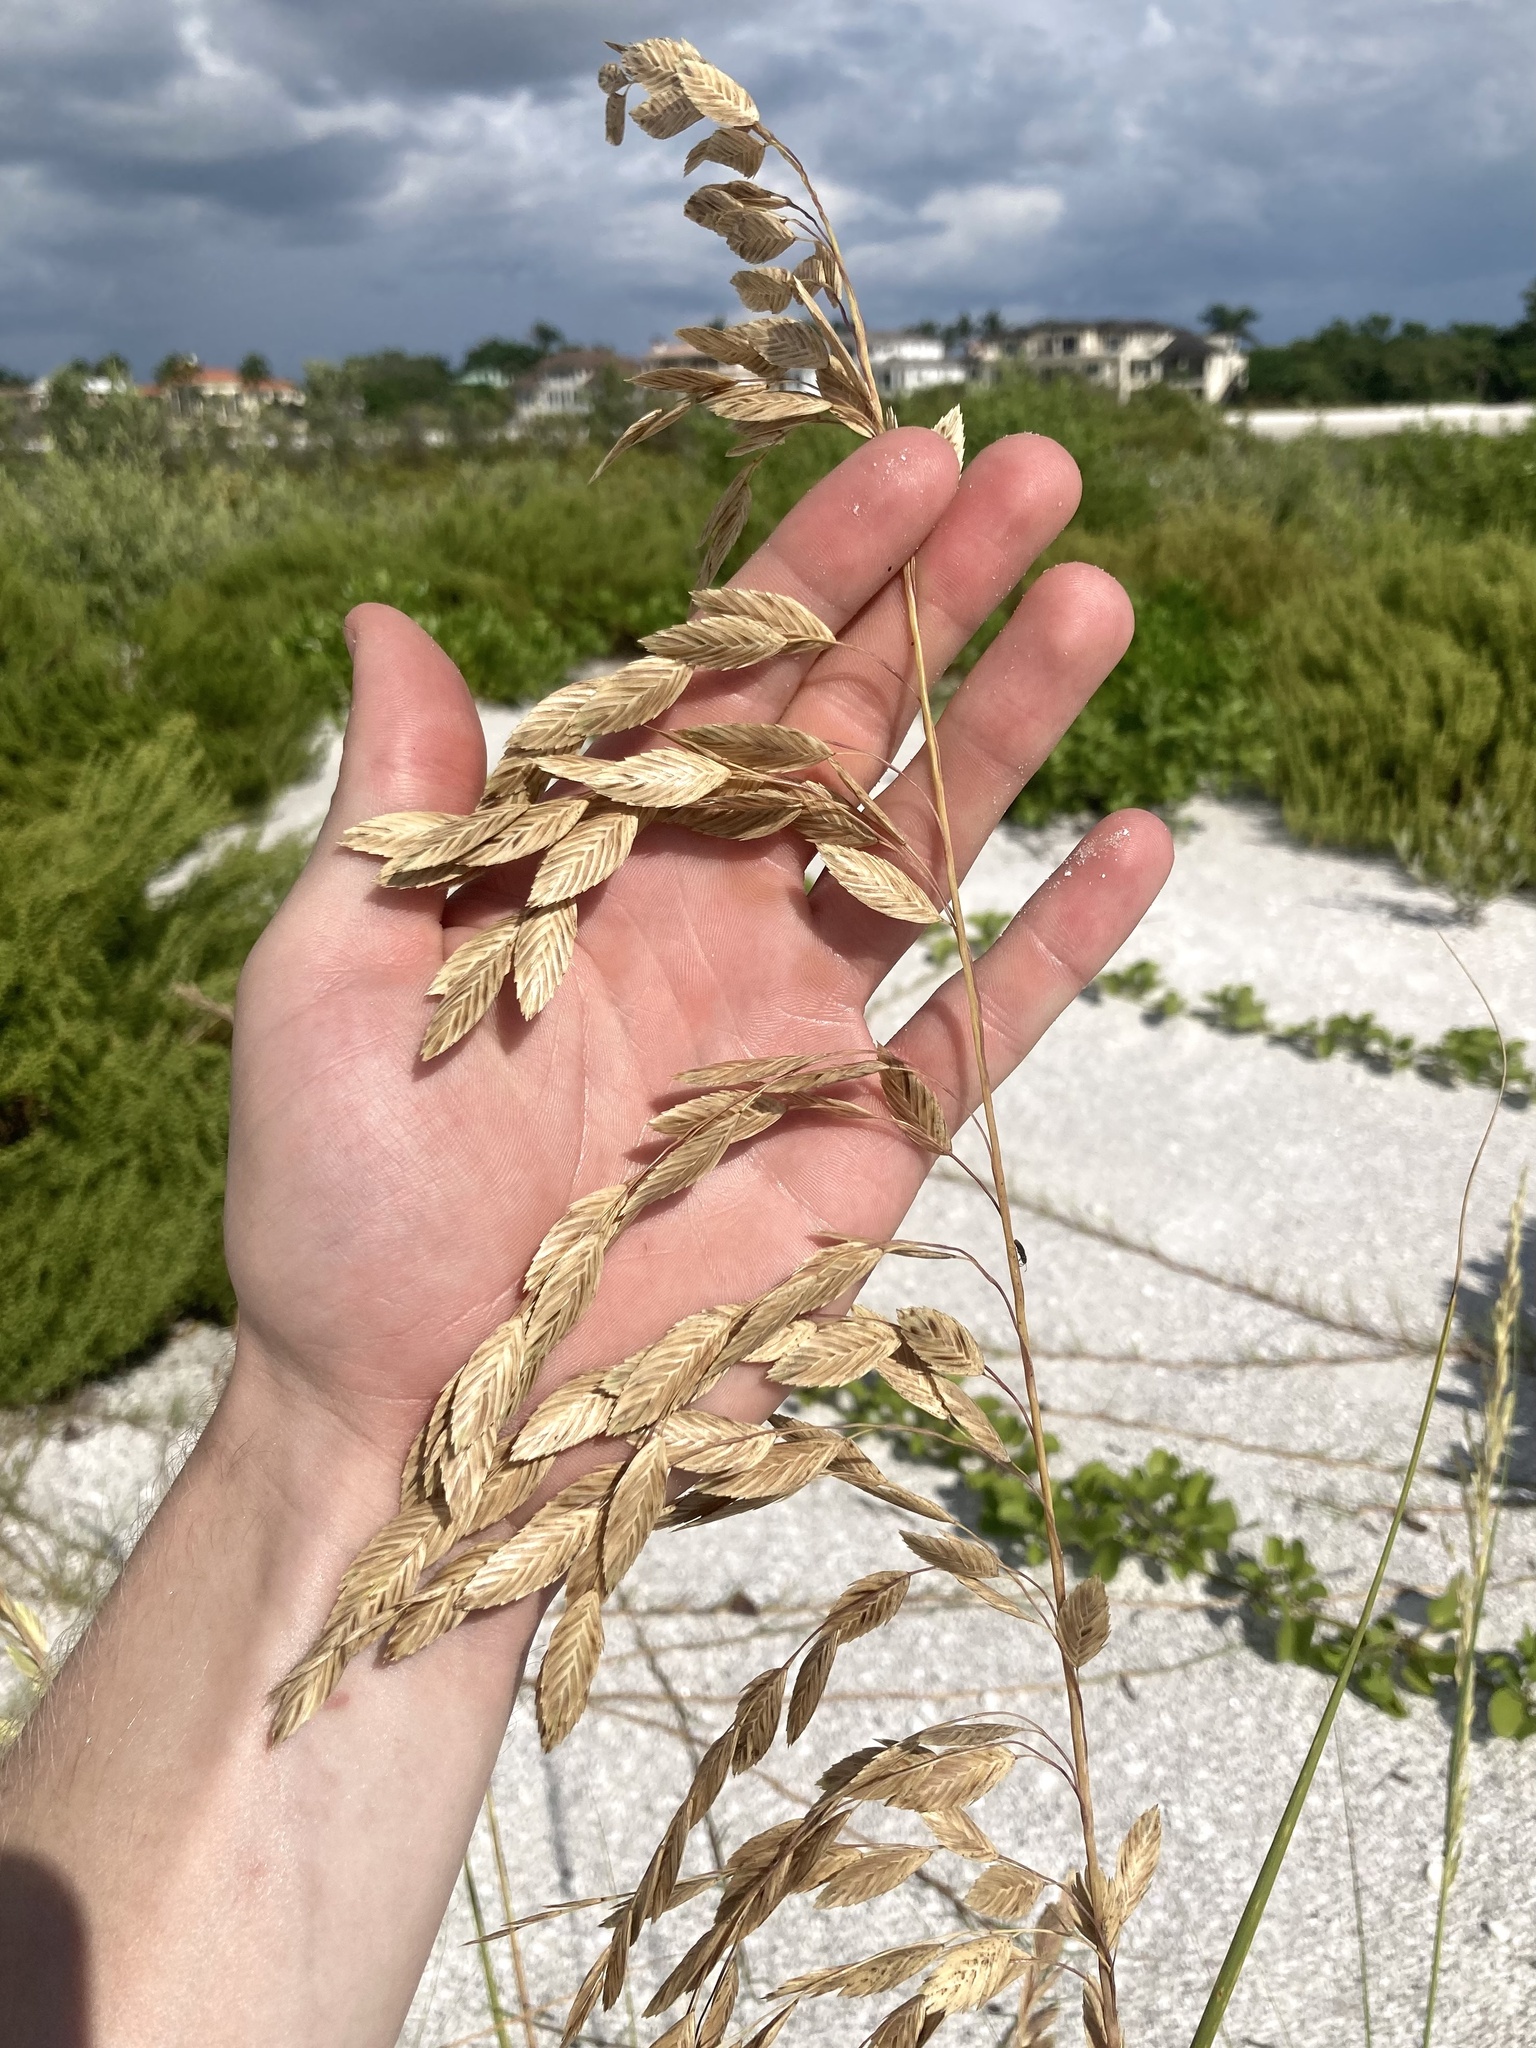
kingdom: Plantae
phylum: Tracheophyta
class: Liliopsida
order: Poales
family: Poaceae
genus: Uniola
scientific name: Uniola paniculata
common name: Seaside-oats
